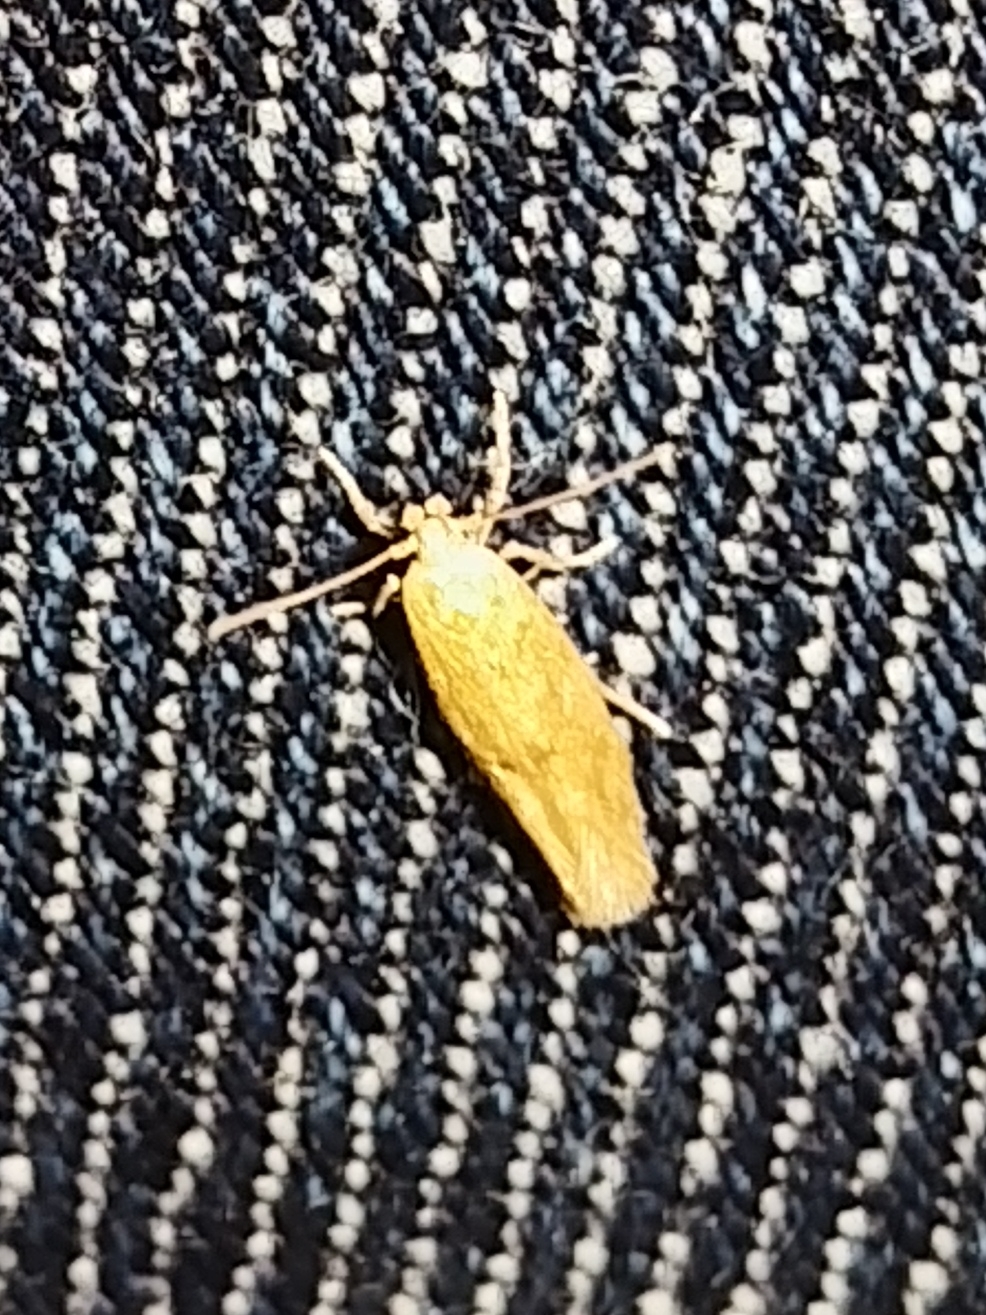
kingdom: Animalia
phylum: Arthropoda
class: Insecta
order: Lepidoptera
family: Momphidae
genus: Mompha
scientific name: Mompha ochraceella
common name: Buff cosmet
